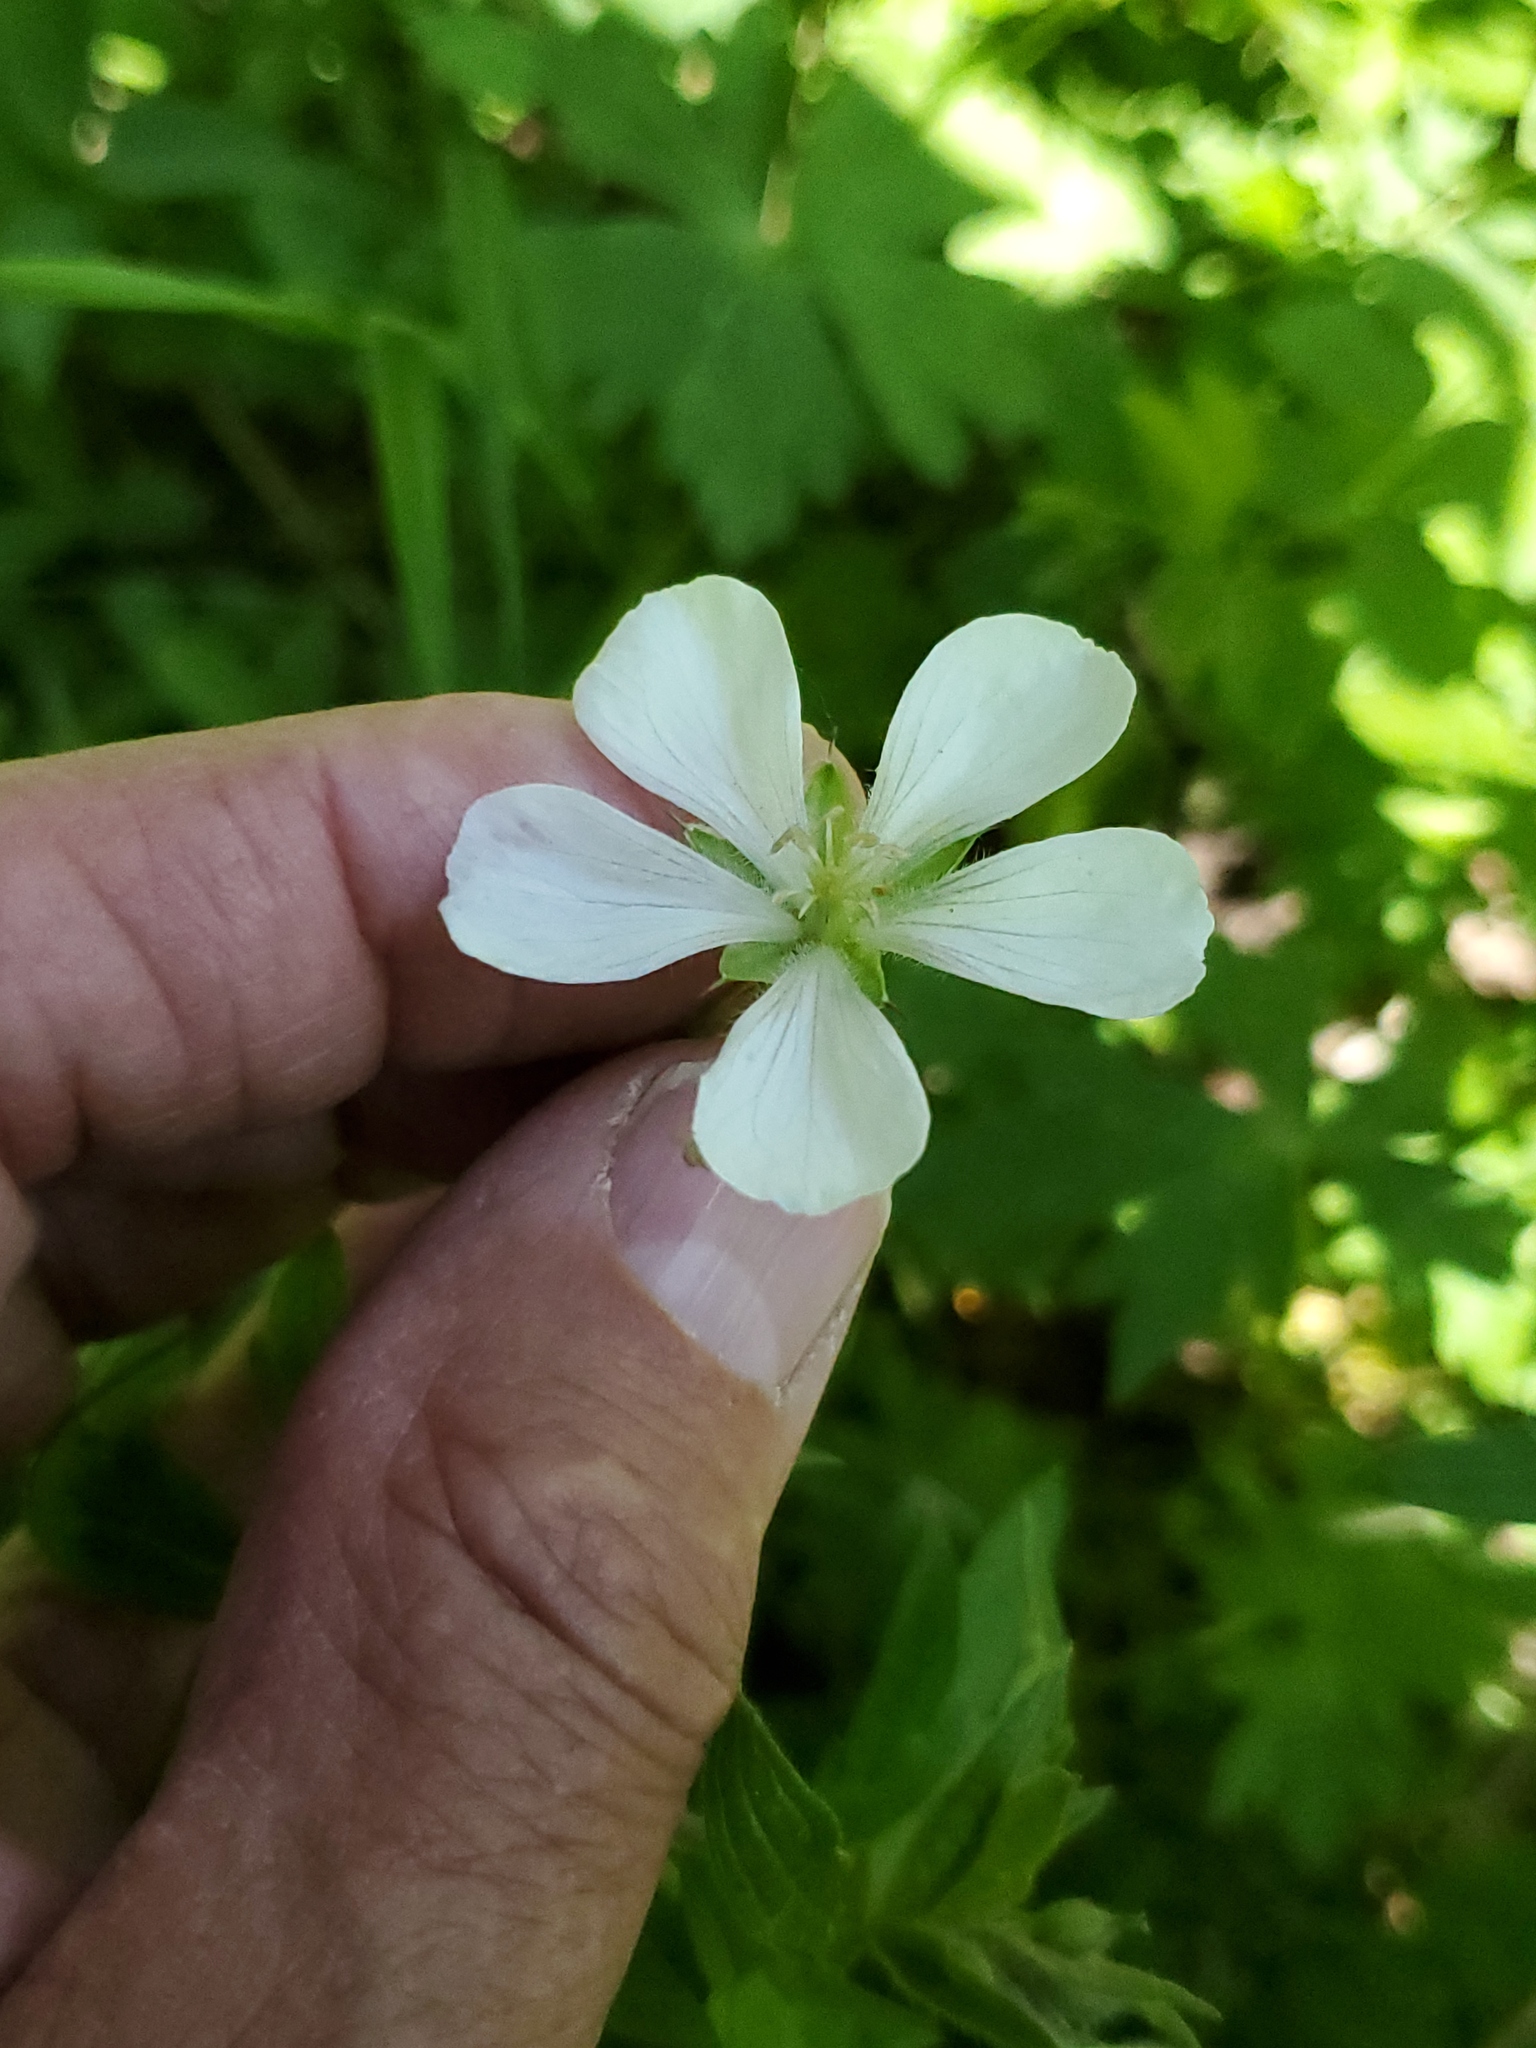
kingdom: Plantae
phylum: Tracheophyta
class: Magnoliopsida
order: Geraniales
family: Geraniaceae
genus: Geranium
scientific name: Geranium richardsonii
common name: Richardson's crane's-bill
